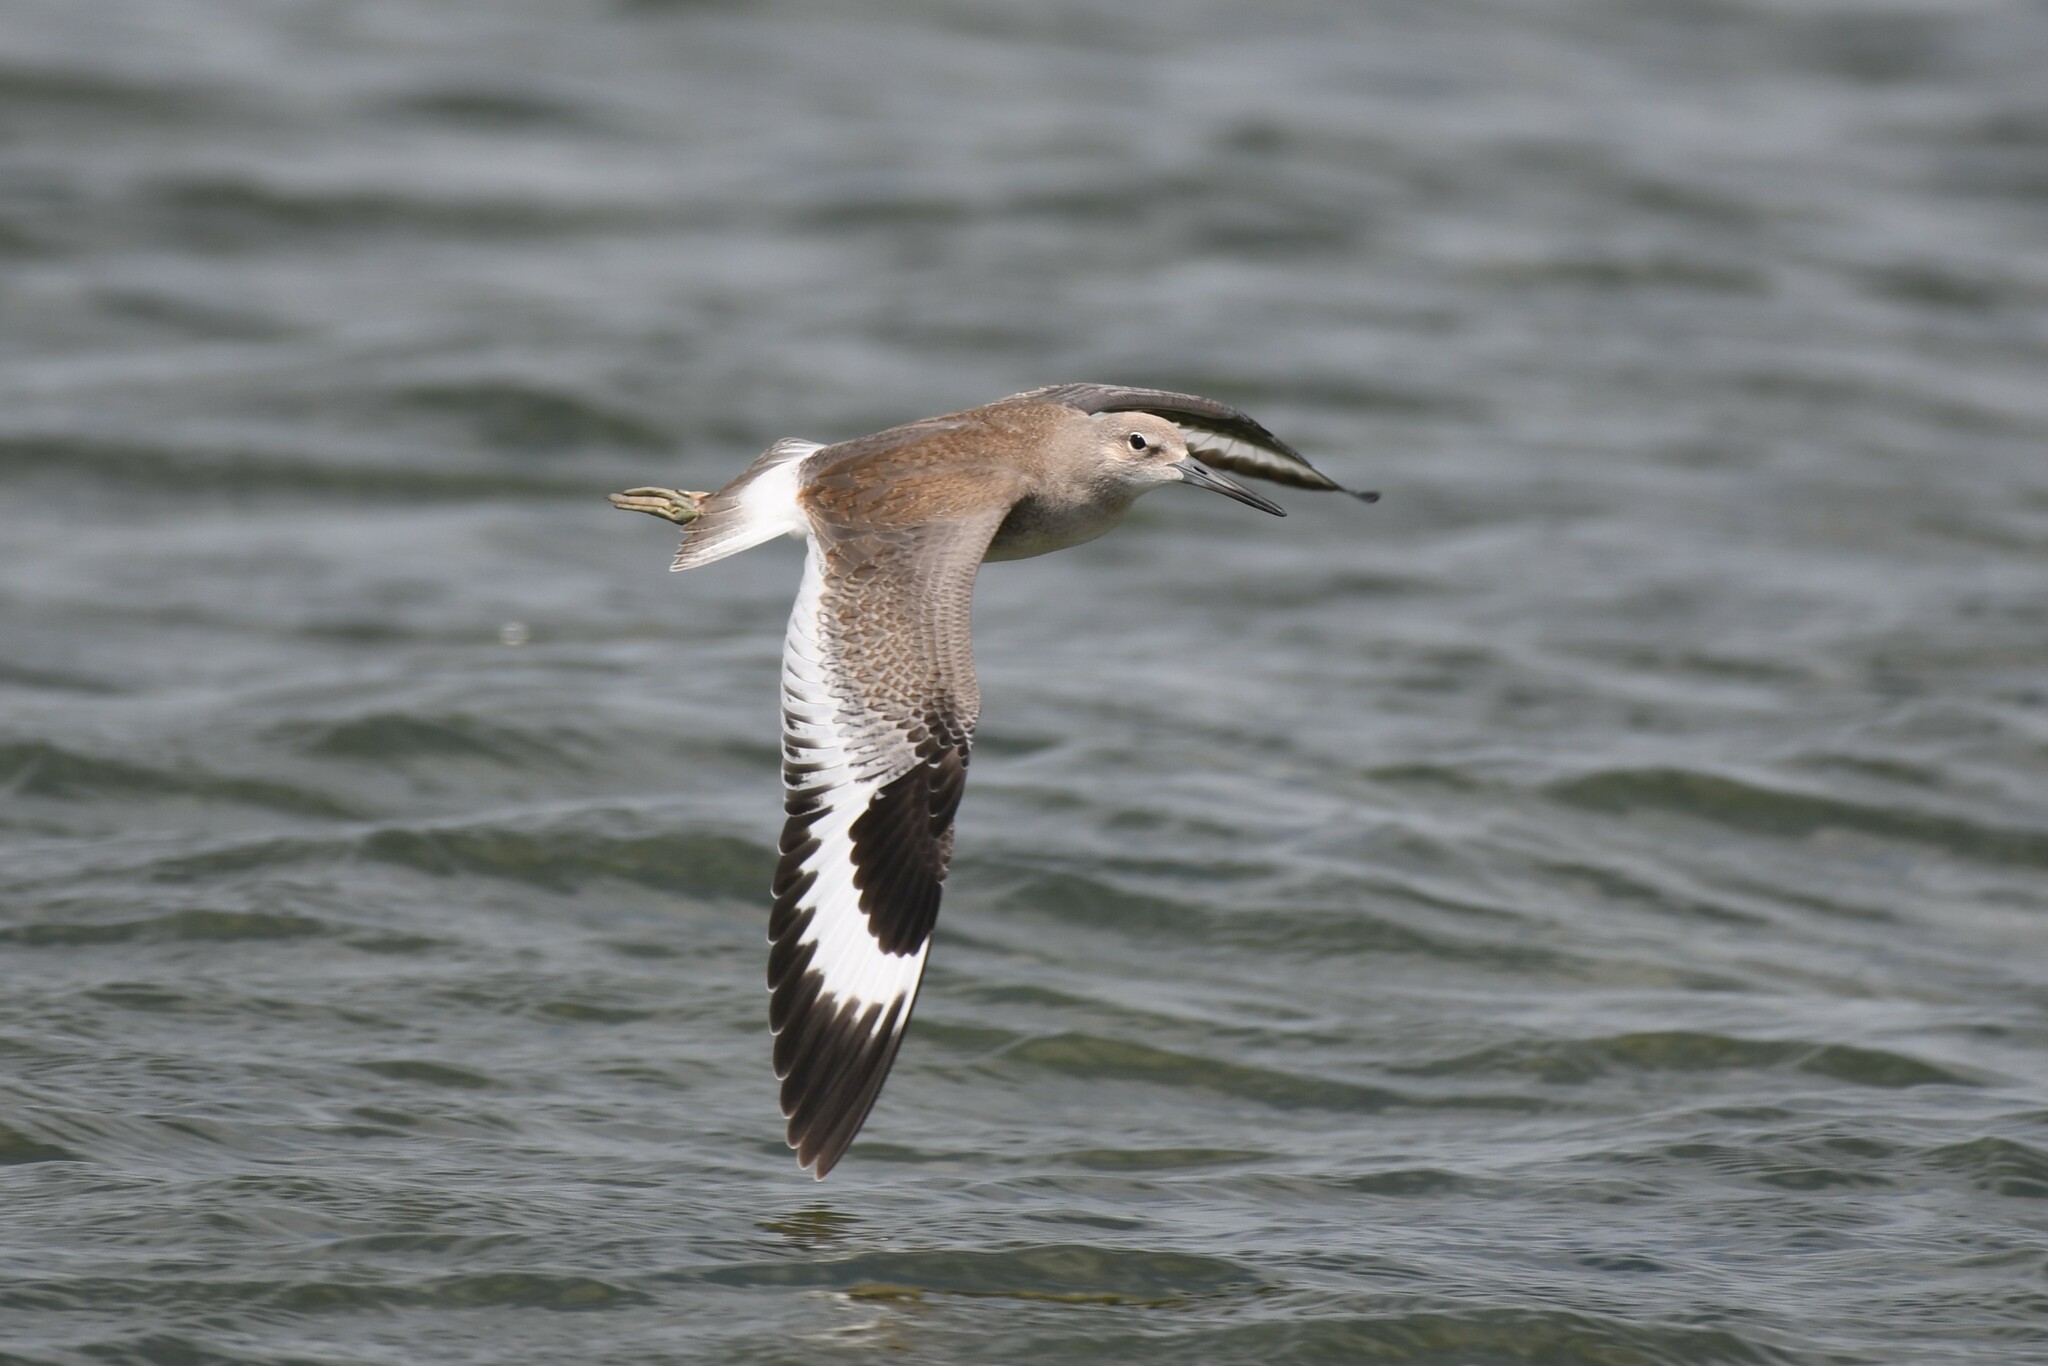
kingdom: Animalia
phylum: Chordata
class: Aves
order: Charadriiformes
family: Scolopacidae
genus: Tringa
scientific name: Tringa semipalmata
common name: Willet
